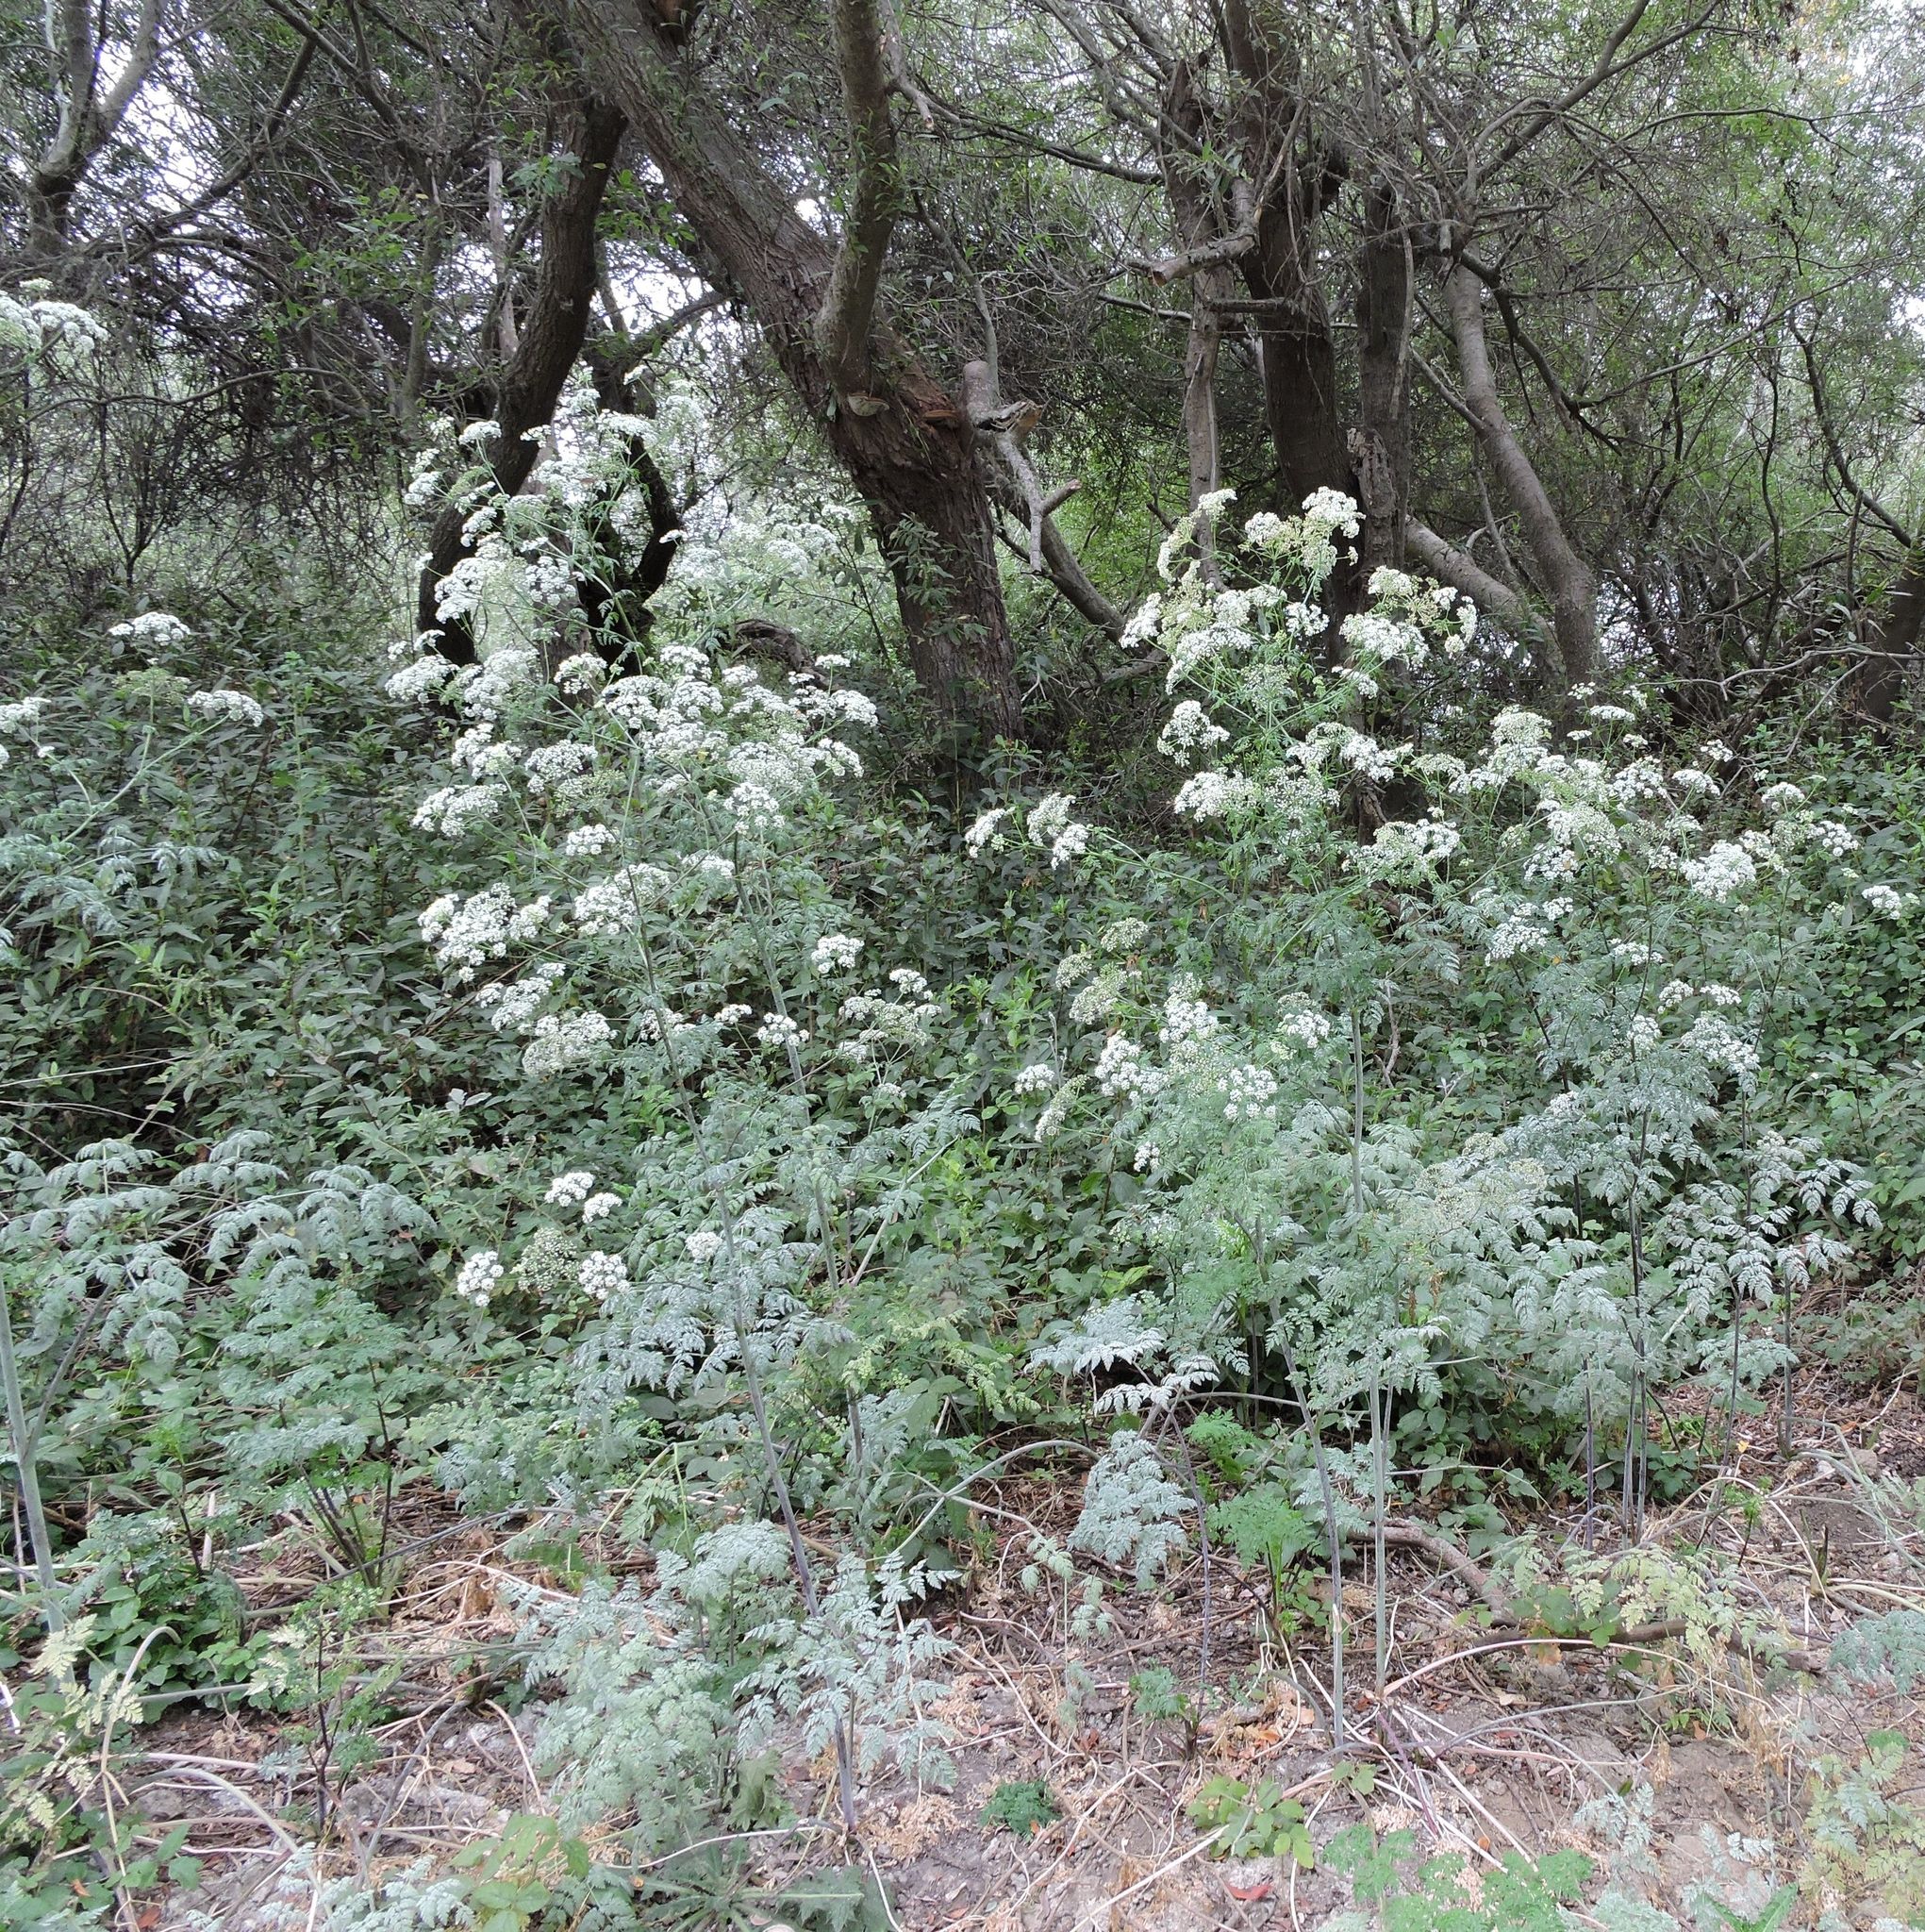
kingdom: Plantae
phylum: Tracheophyta
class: Magnoliopsida
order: Apiales
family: Apiaceae
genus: Conium
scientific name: Conium maculatum
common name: Hemlock
